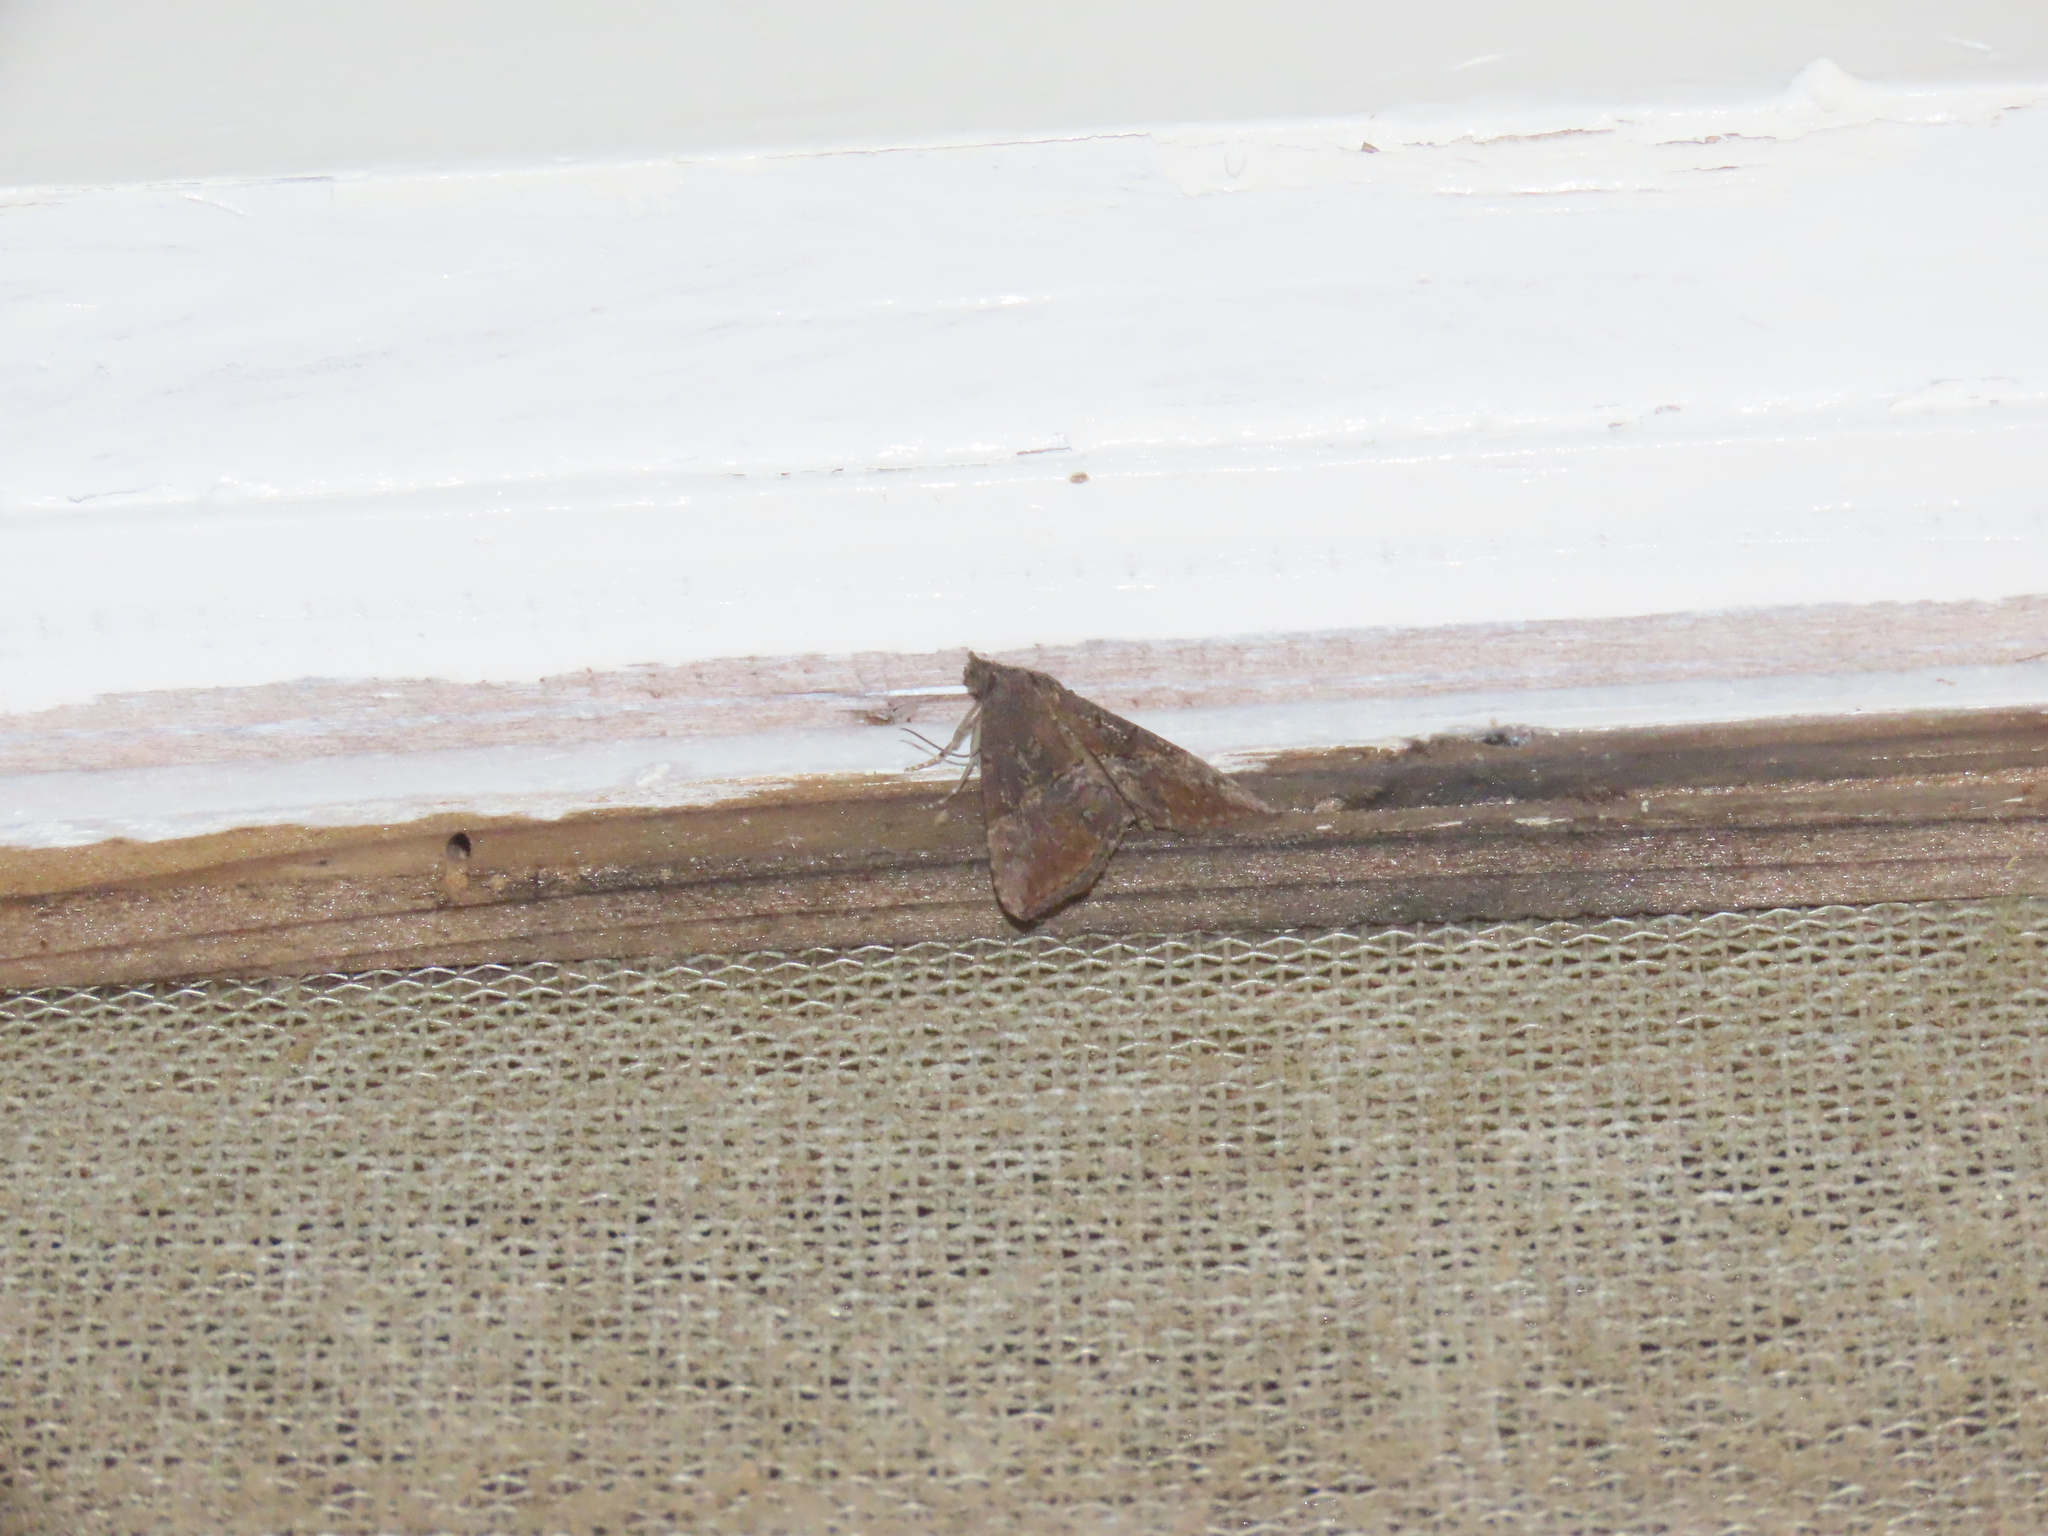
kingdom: Animalia
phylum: Arthropoda
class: Insecta
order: Lepidoptera
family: Erebidae
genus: Hypena
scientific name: Hypena scabra
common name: Green cloverworm
